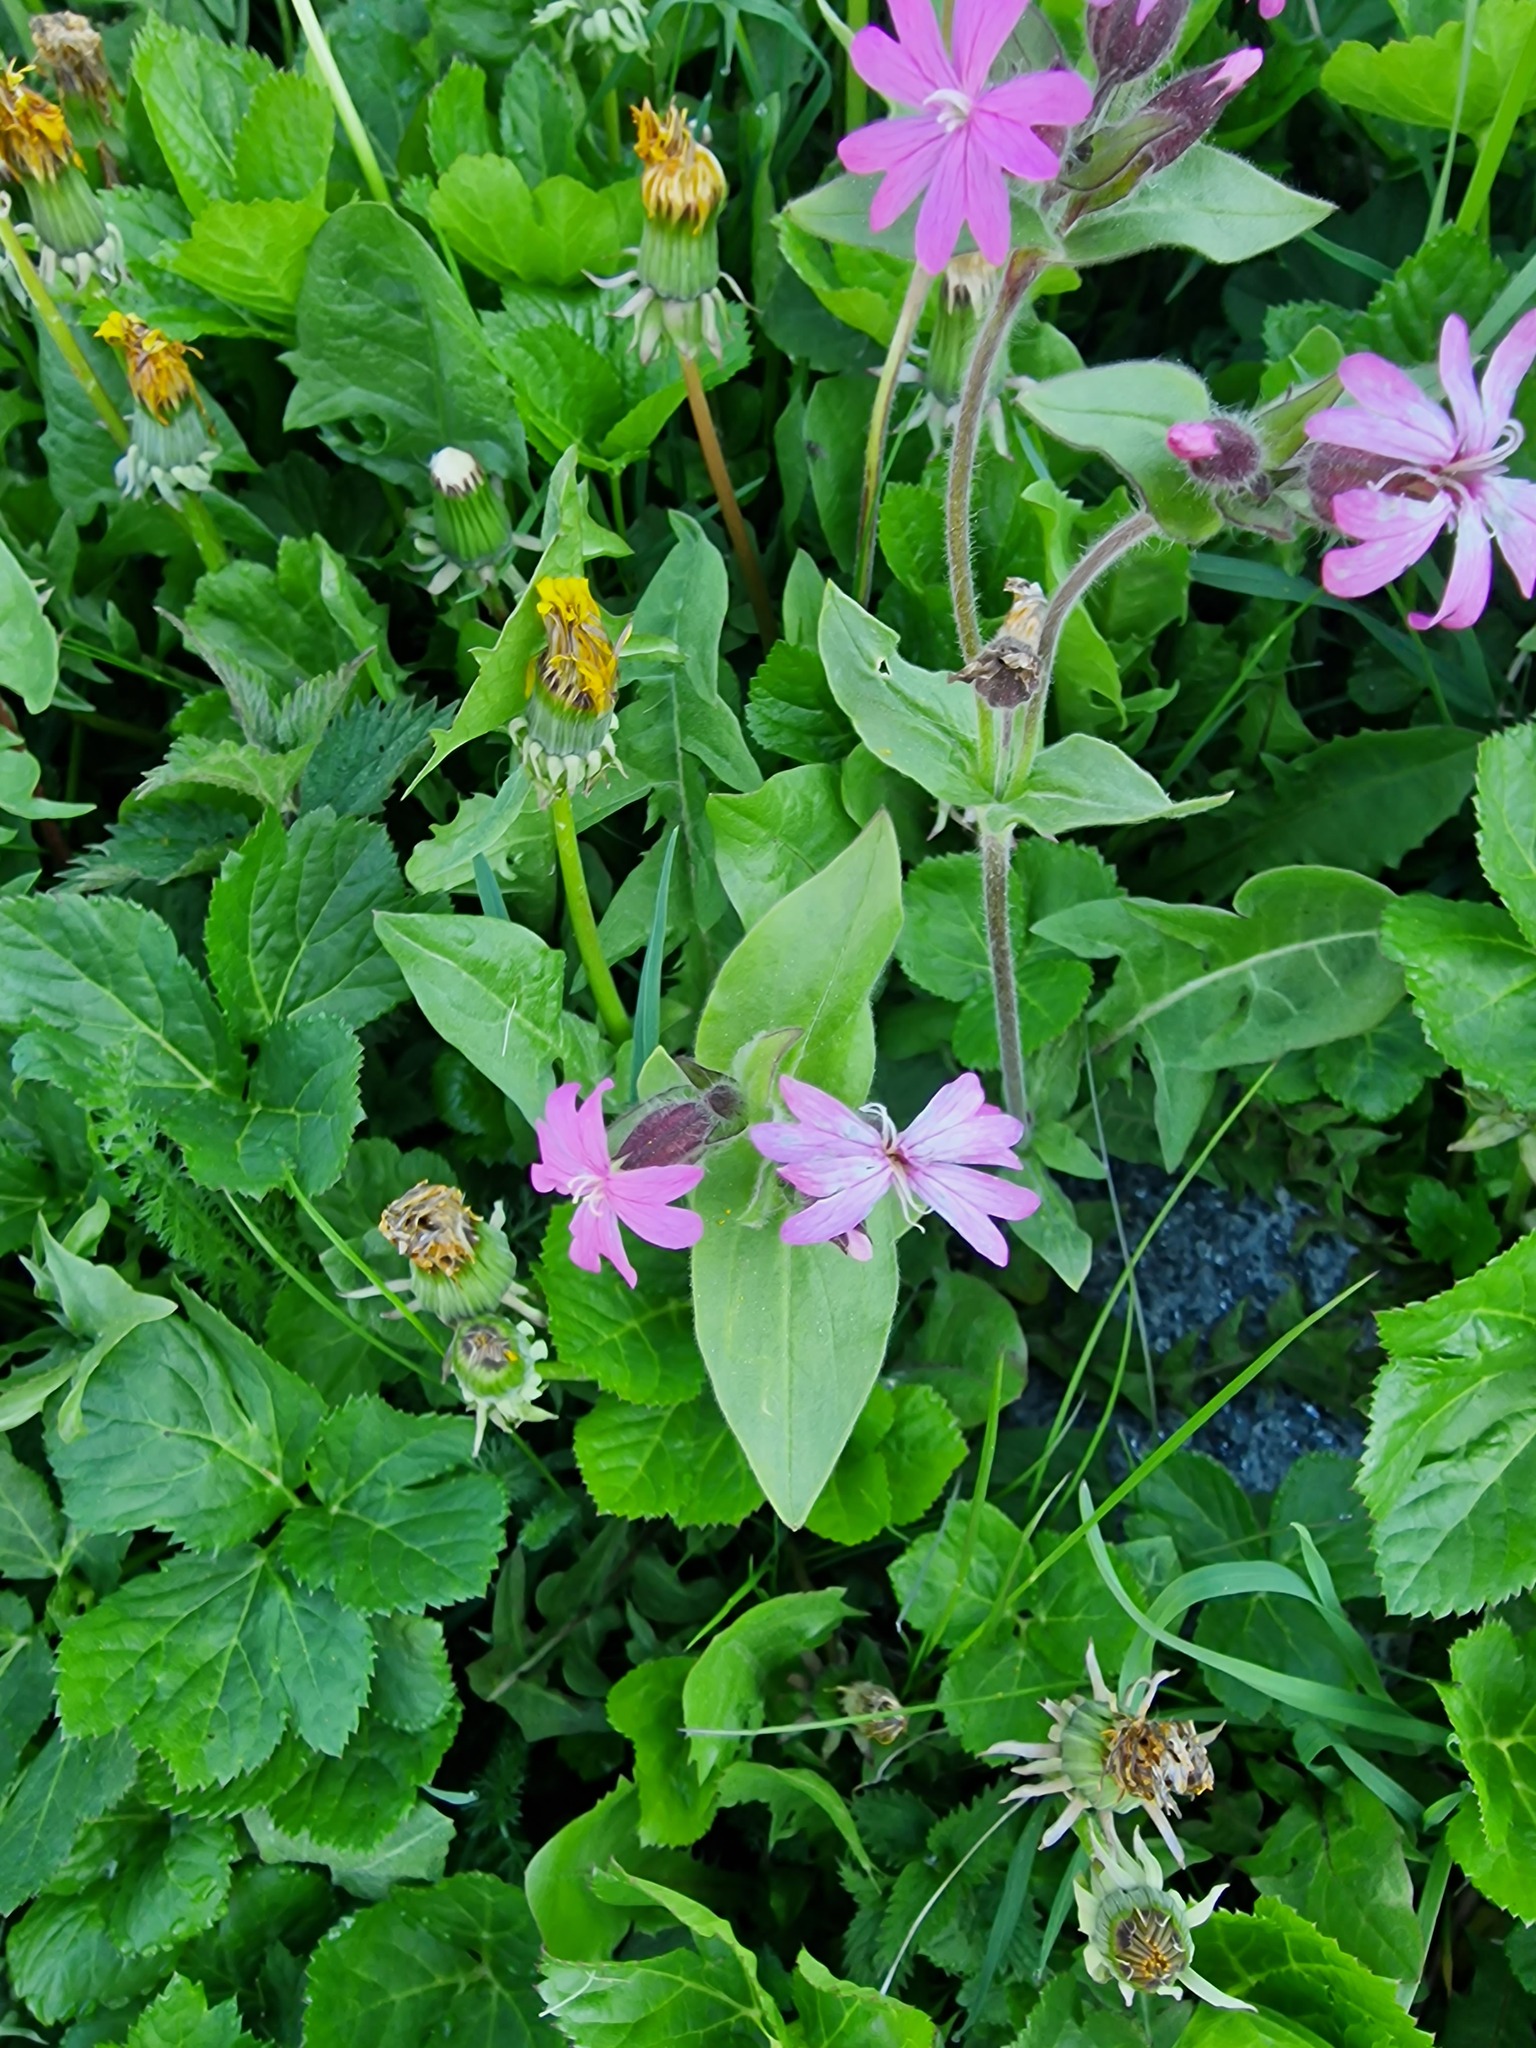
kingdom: Plantae
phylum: Tracheophyta
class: Magnoliopsida
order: Caryophyllales
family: Caryophyllaceae
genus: Silene
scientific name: Silene dioica
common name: Red campion
